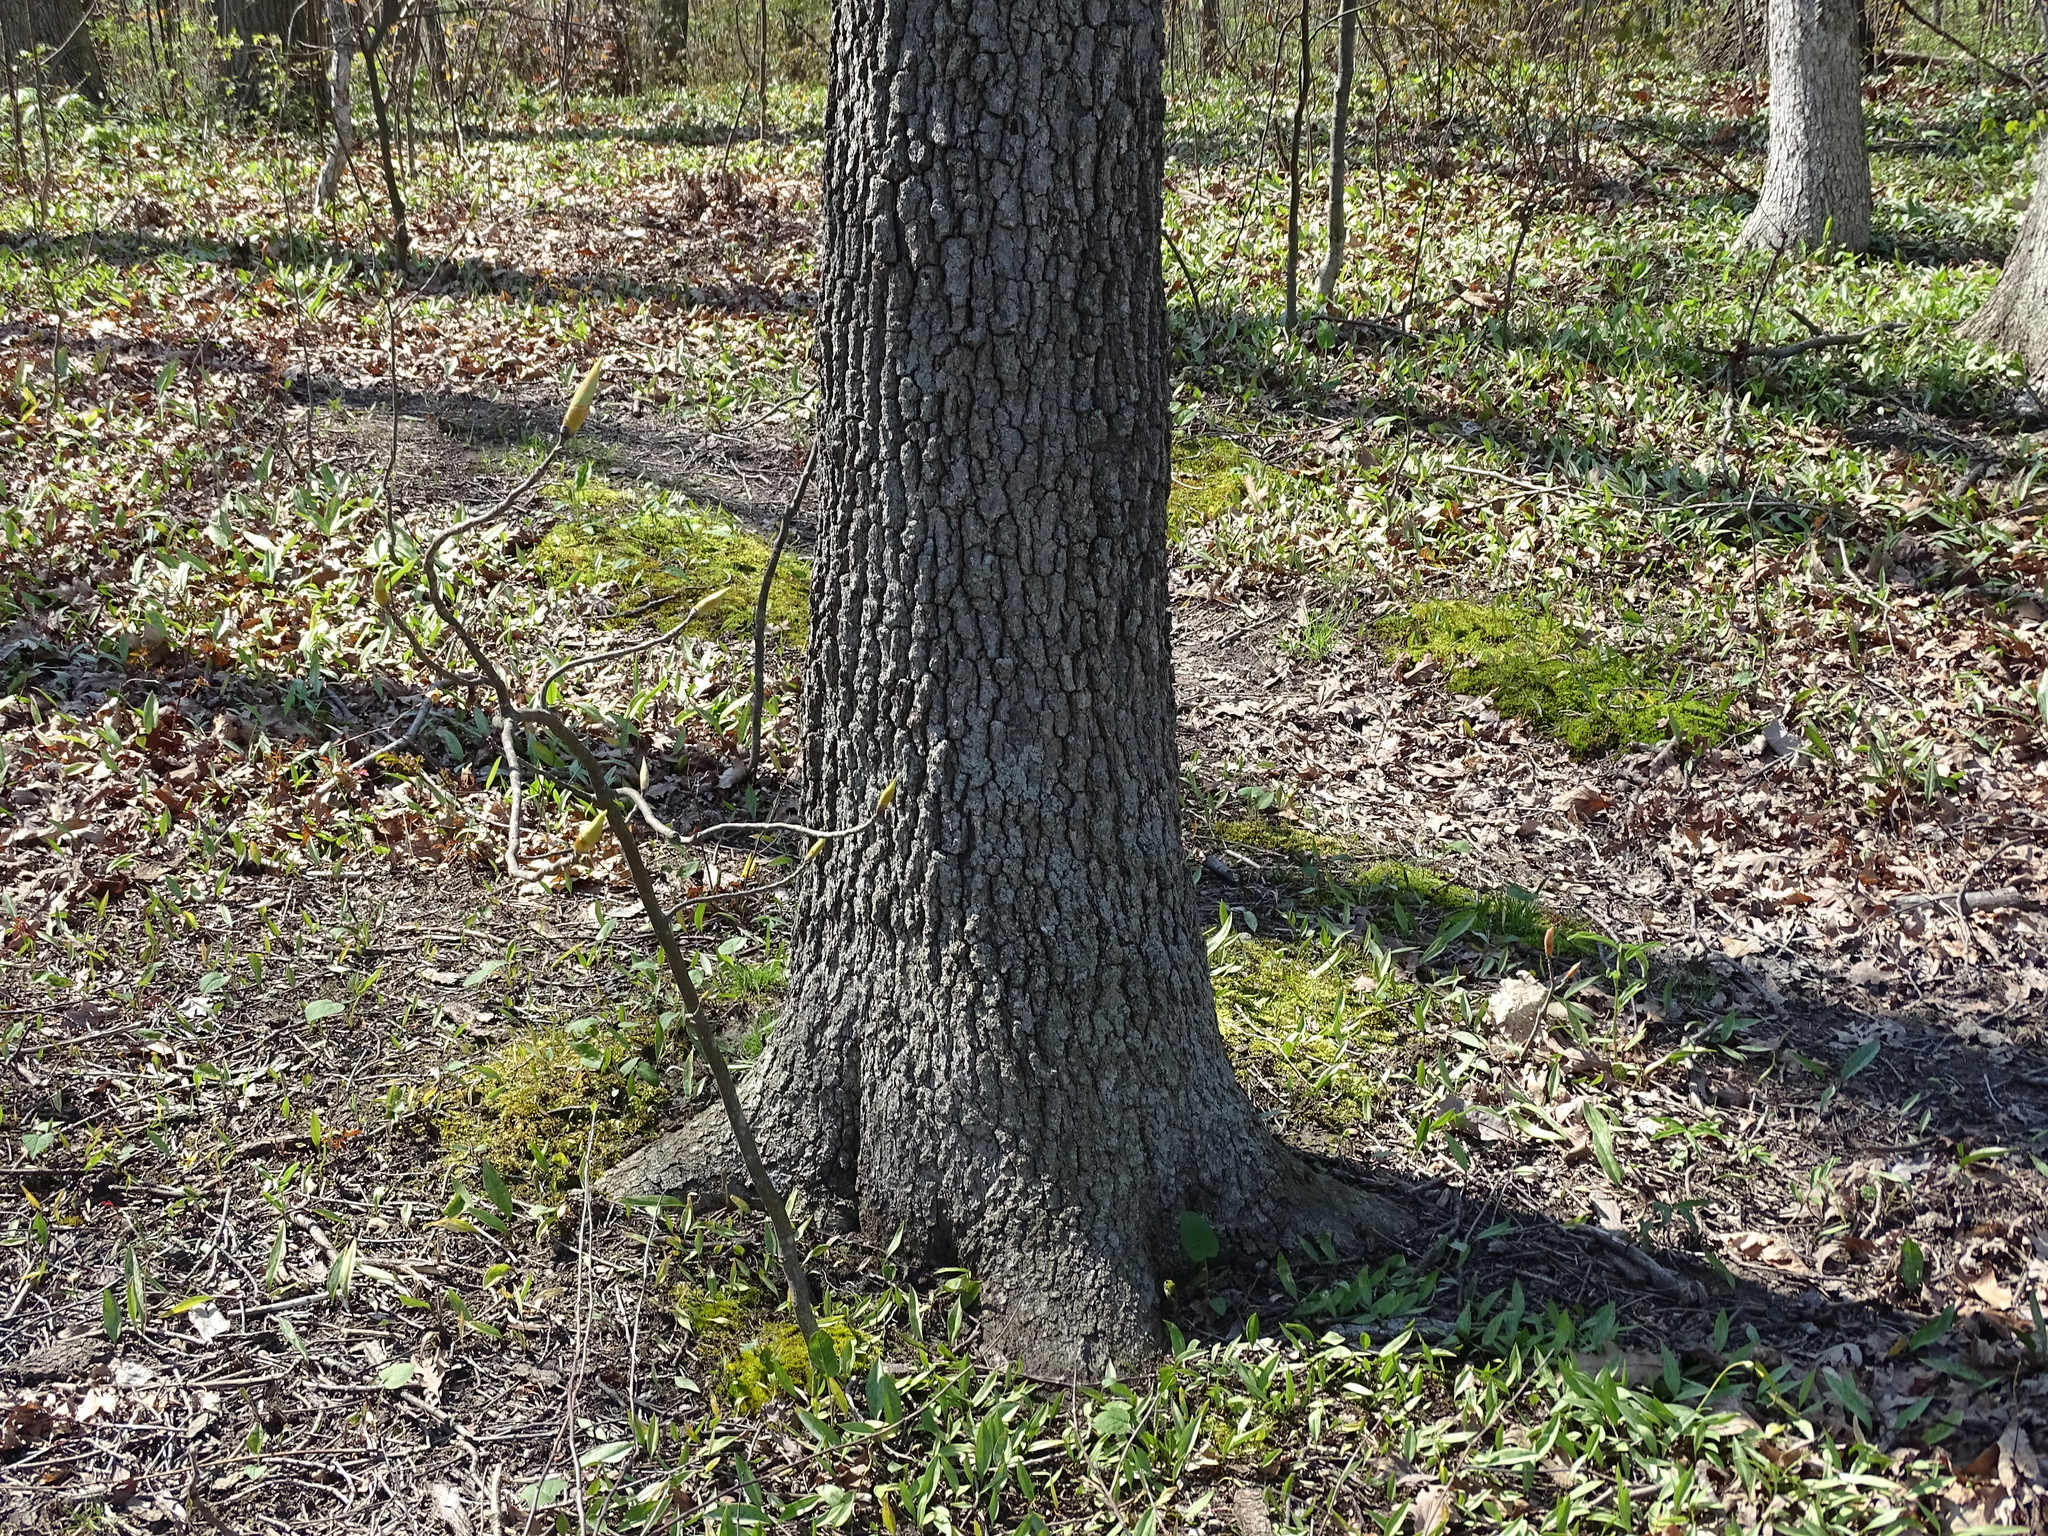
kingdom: Plantae
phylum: Tracheophyta
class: Magnoliopsida
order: Fagales
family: Fagaceae
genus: Quercus
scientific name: Quercus velutina
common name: Black oak
